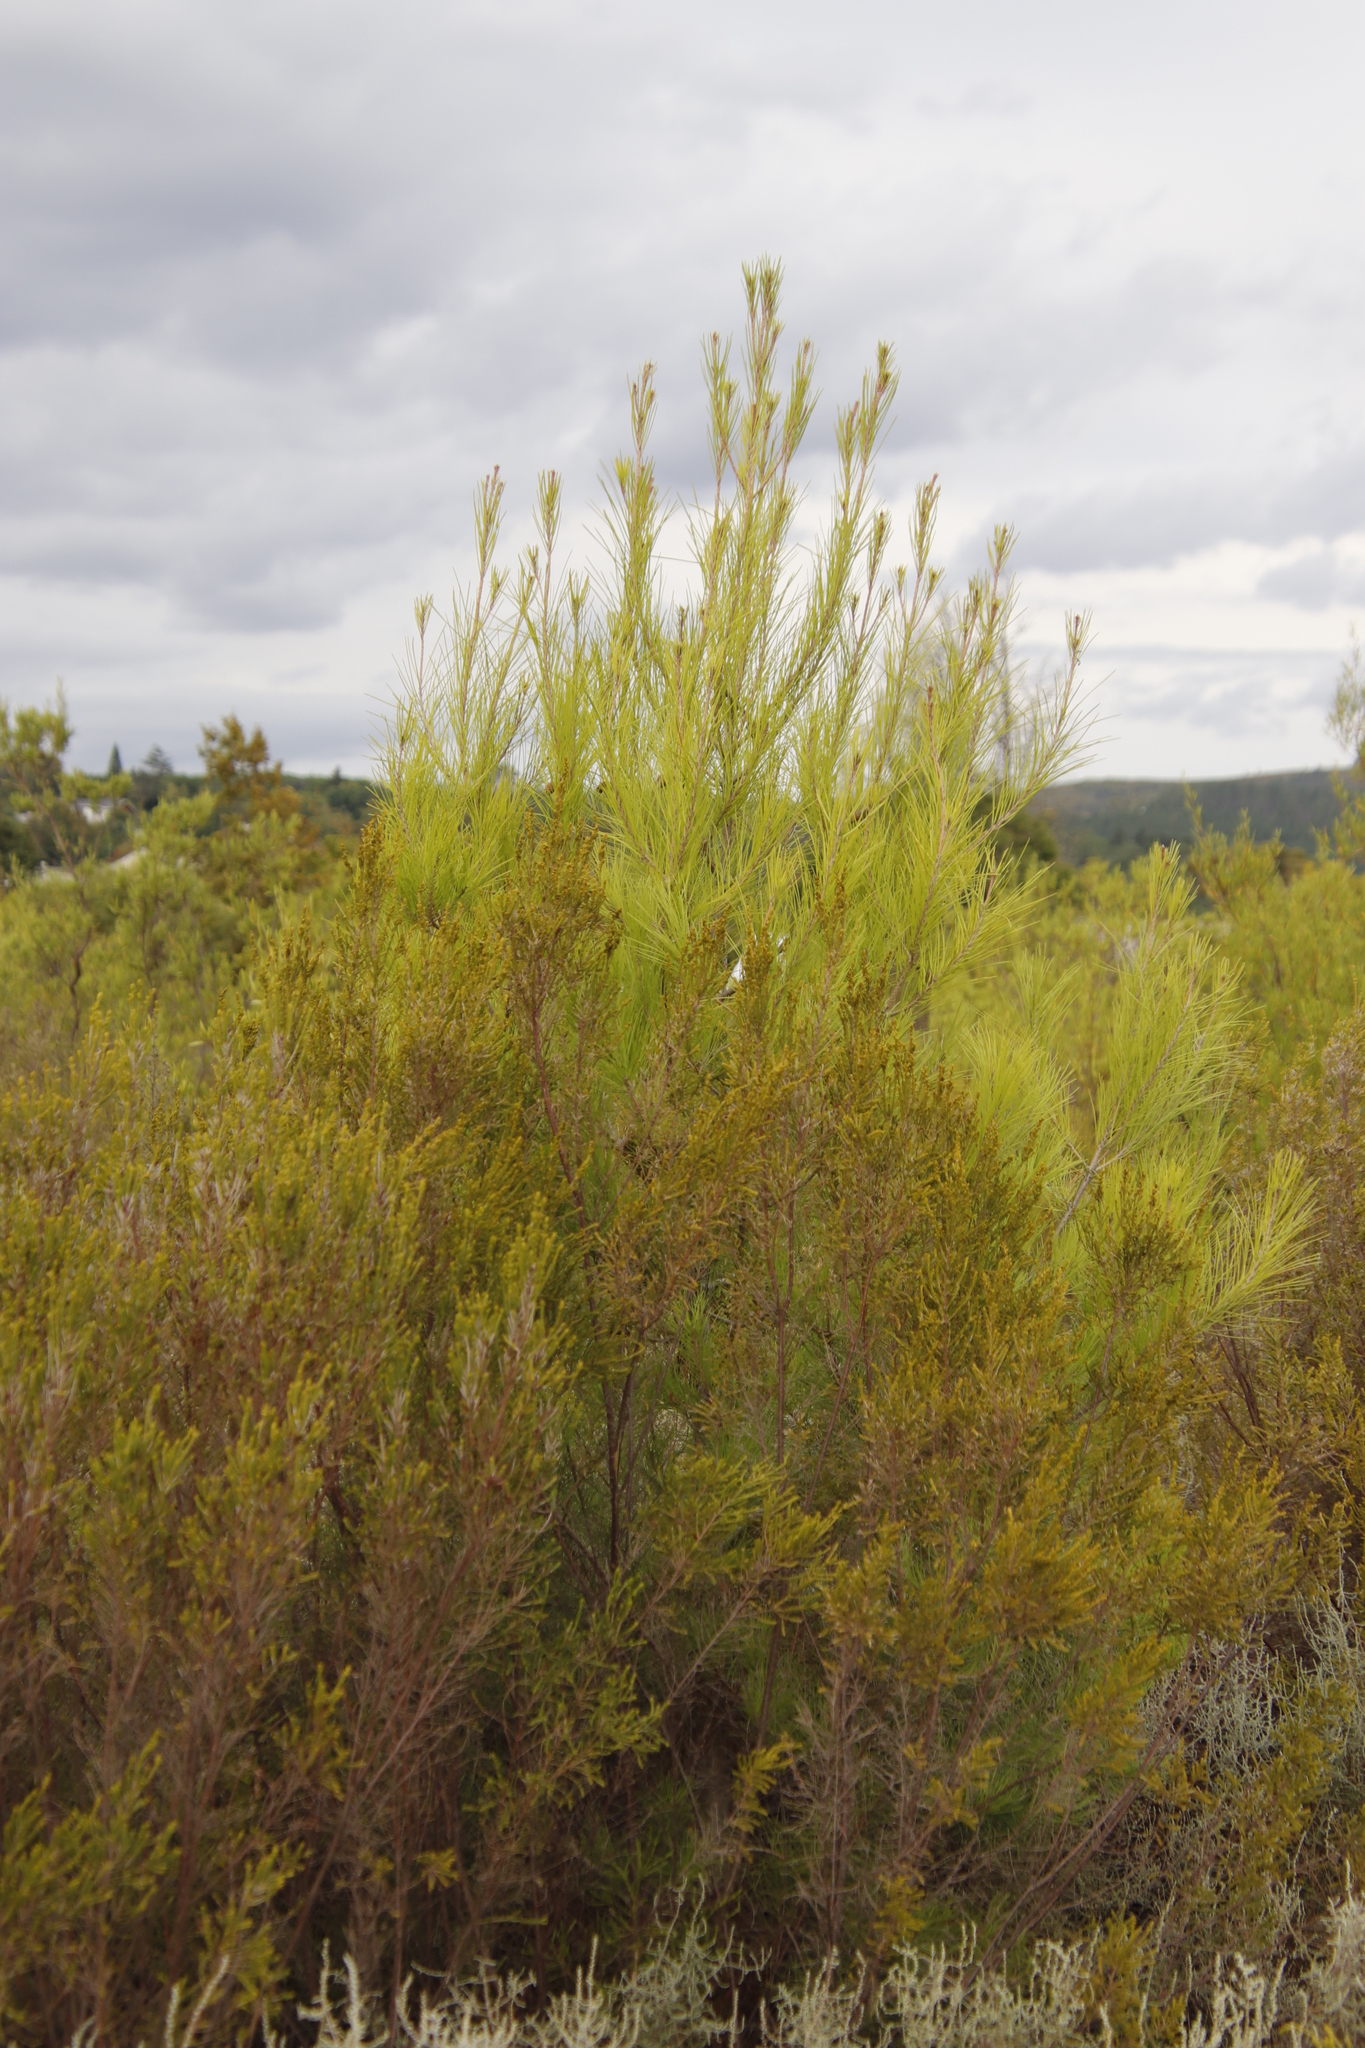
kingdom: Plantae
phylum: Tracheophyta
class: Pinopsida
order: Pinales
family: Pinaceae
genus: Pinus
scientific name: Pinus halepensis
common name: Aleppo pine
